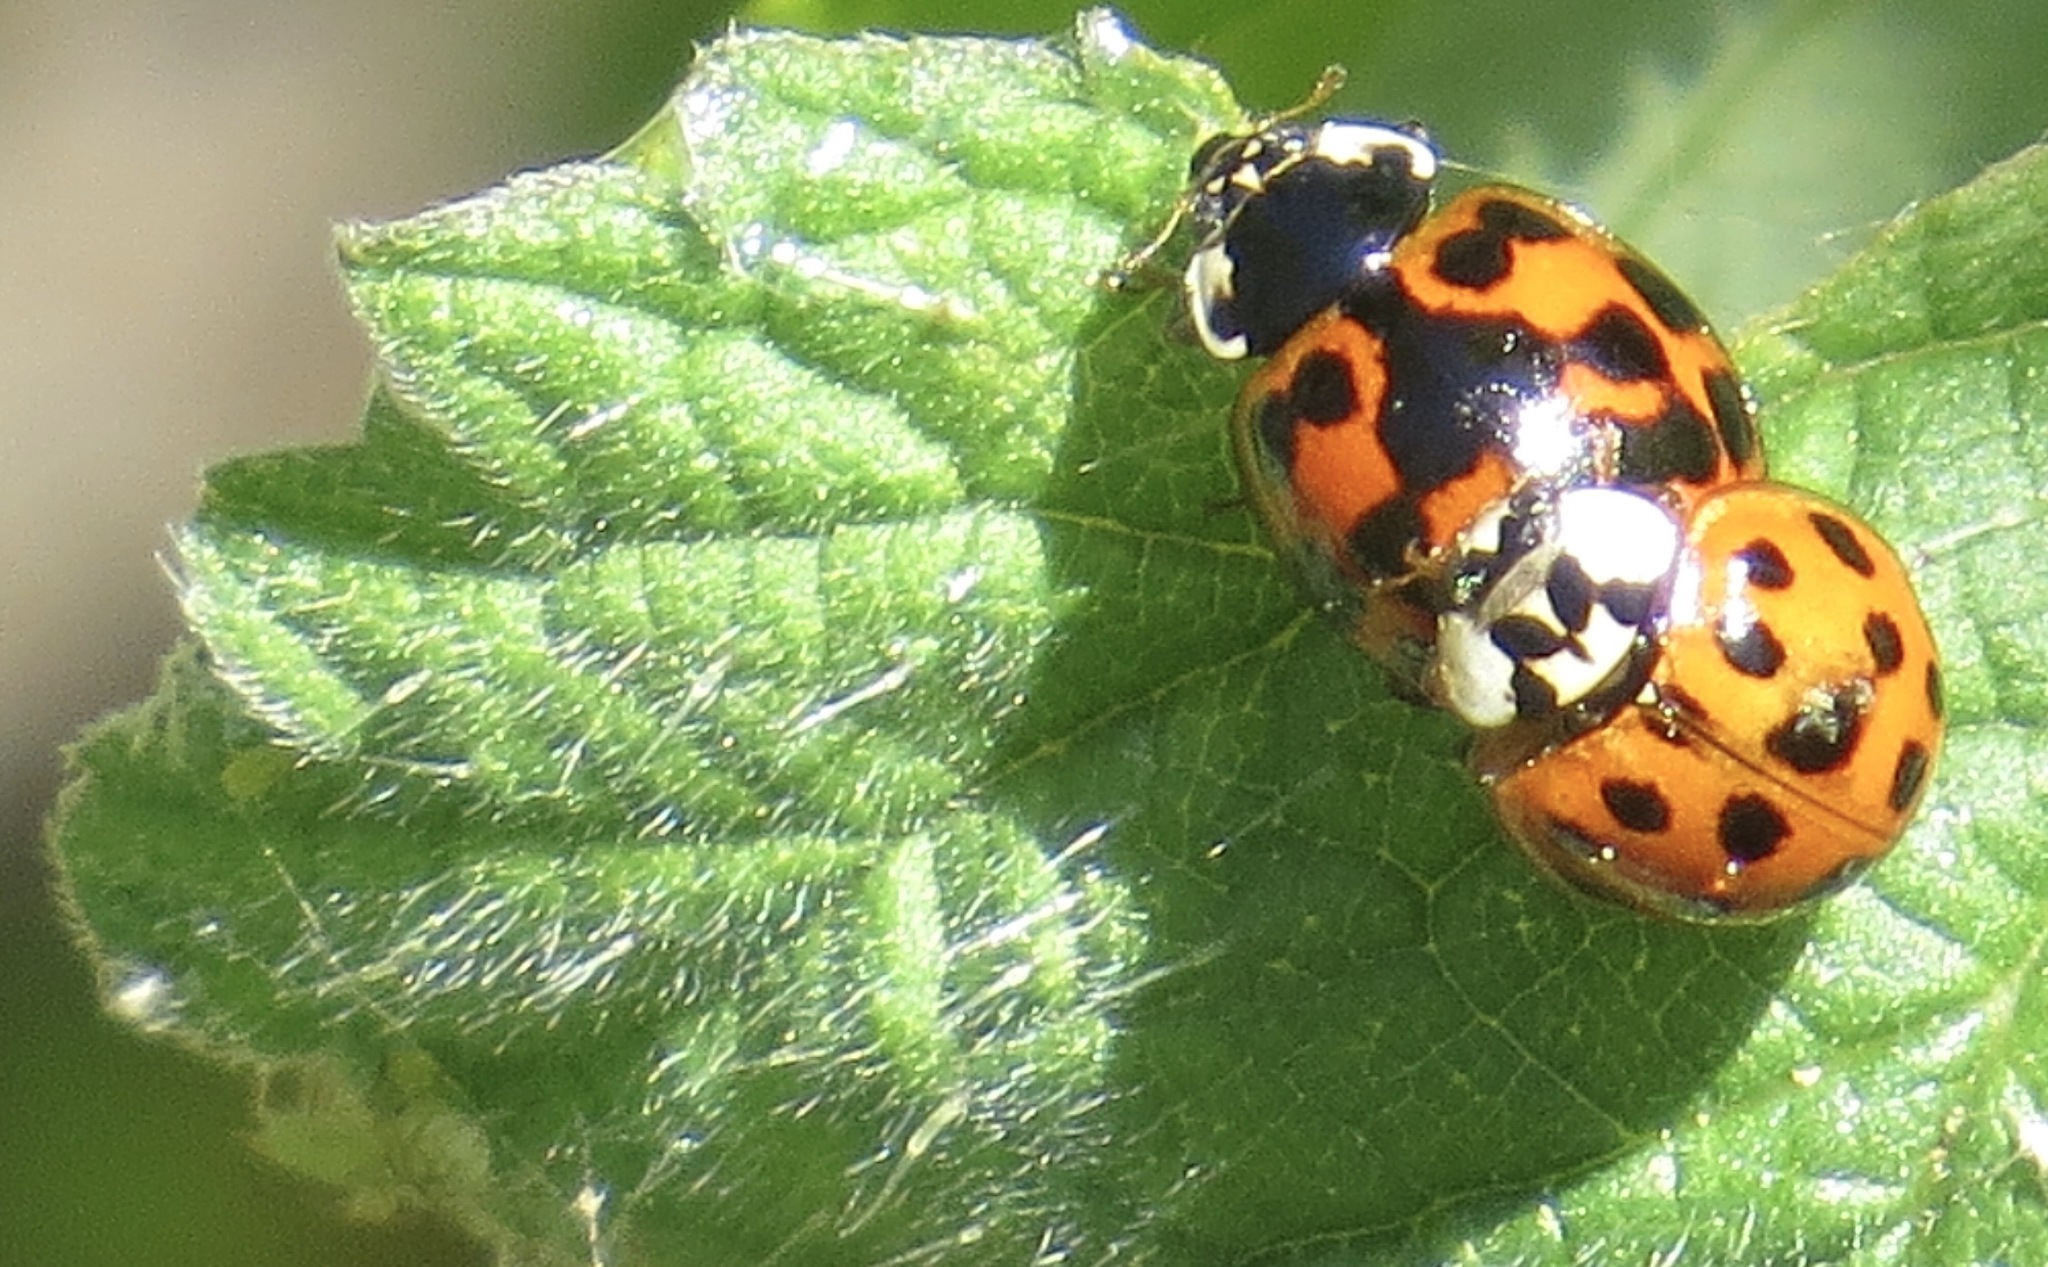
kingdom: Animalia
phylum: Arthropoda
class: Insecta
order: Coleoptera
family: Coccinellidae
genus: Harmonia
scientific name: Harmonia axyridis
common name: Harlequin ladybird
